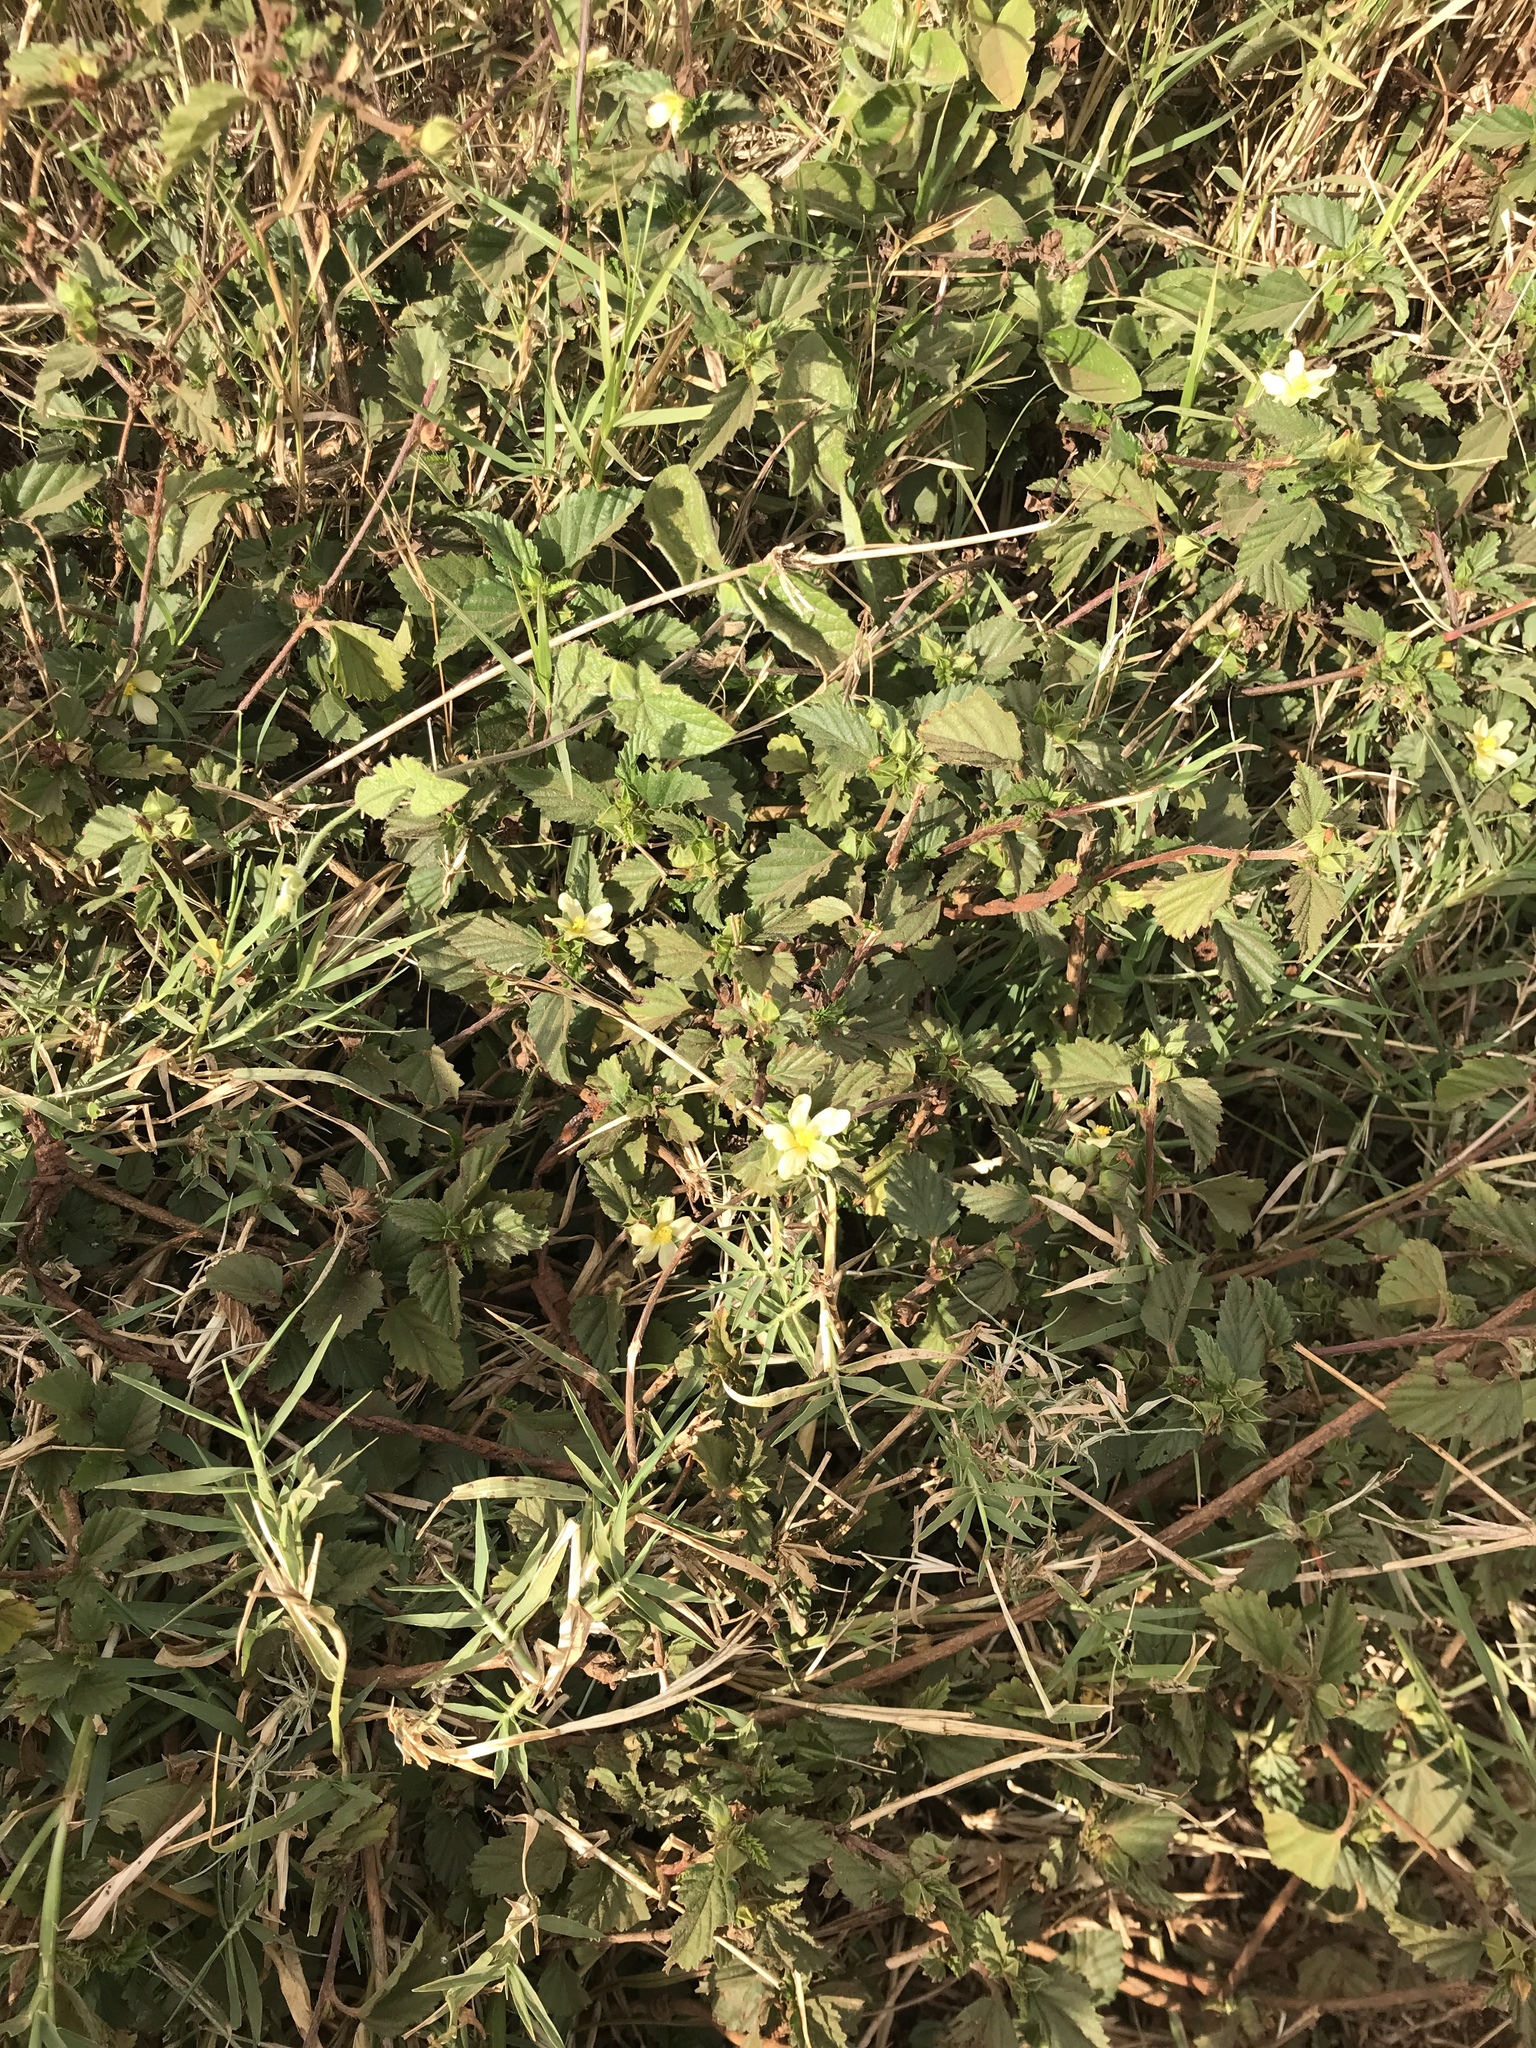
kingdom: Plantae
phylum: Tracheophyta
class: Magnoliopsida
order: Malvales
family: Malvaceae
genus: Malvastrum
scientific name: Malvastrum coromandelianum
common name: Threelobe false mallow
